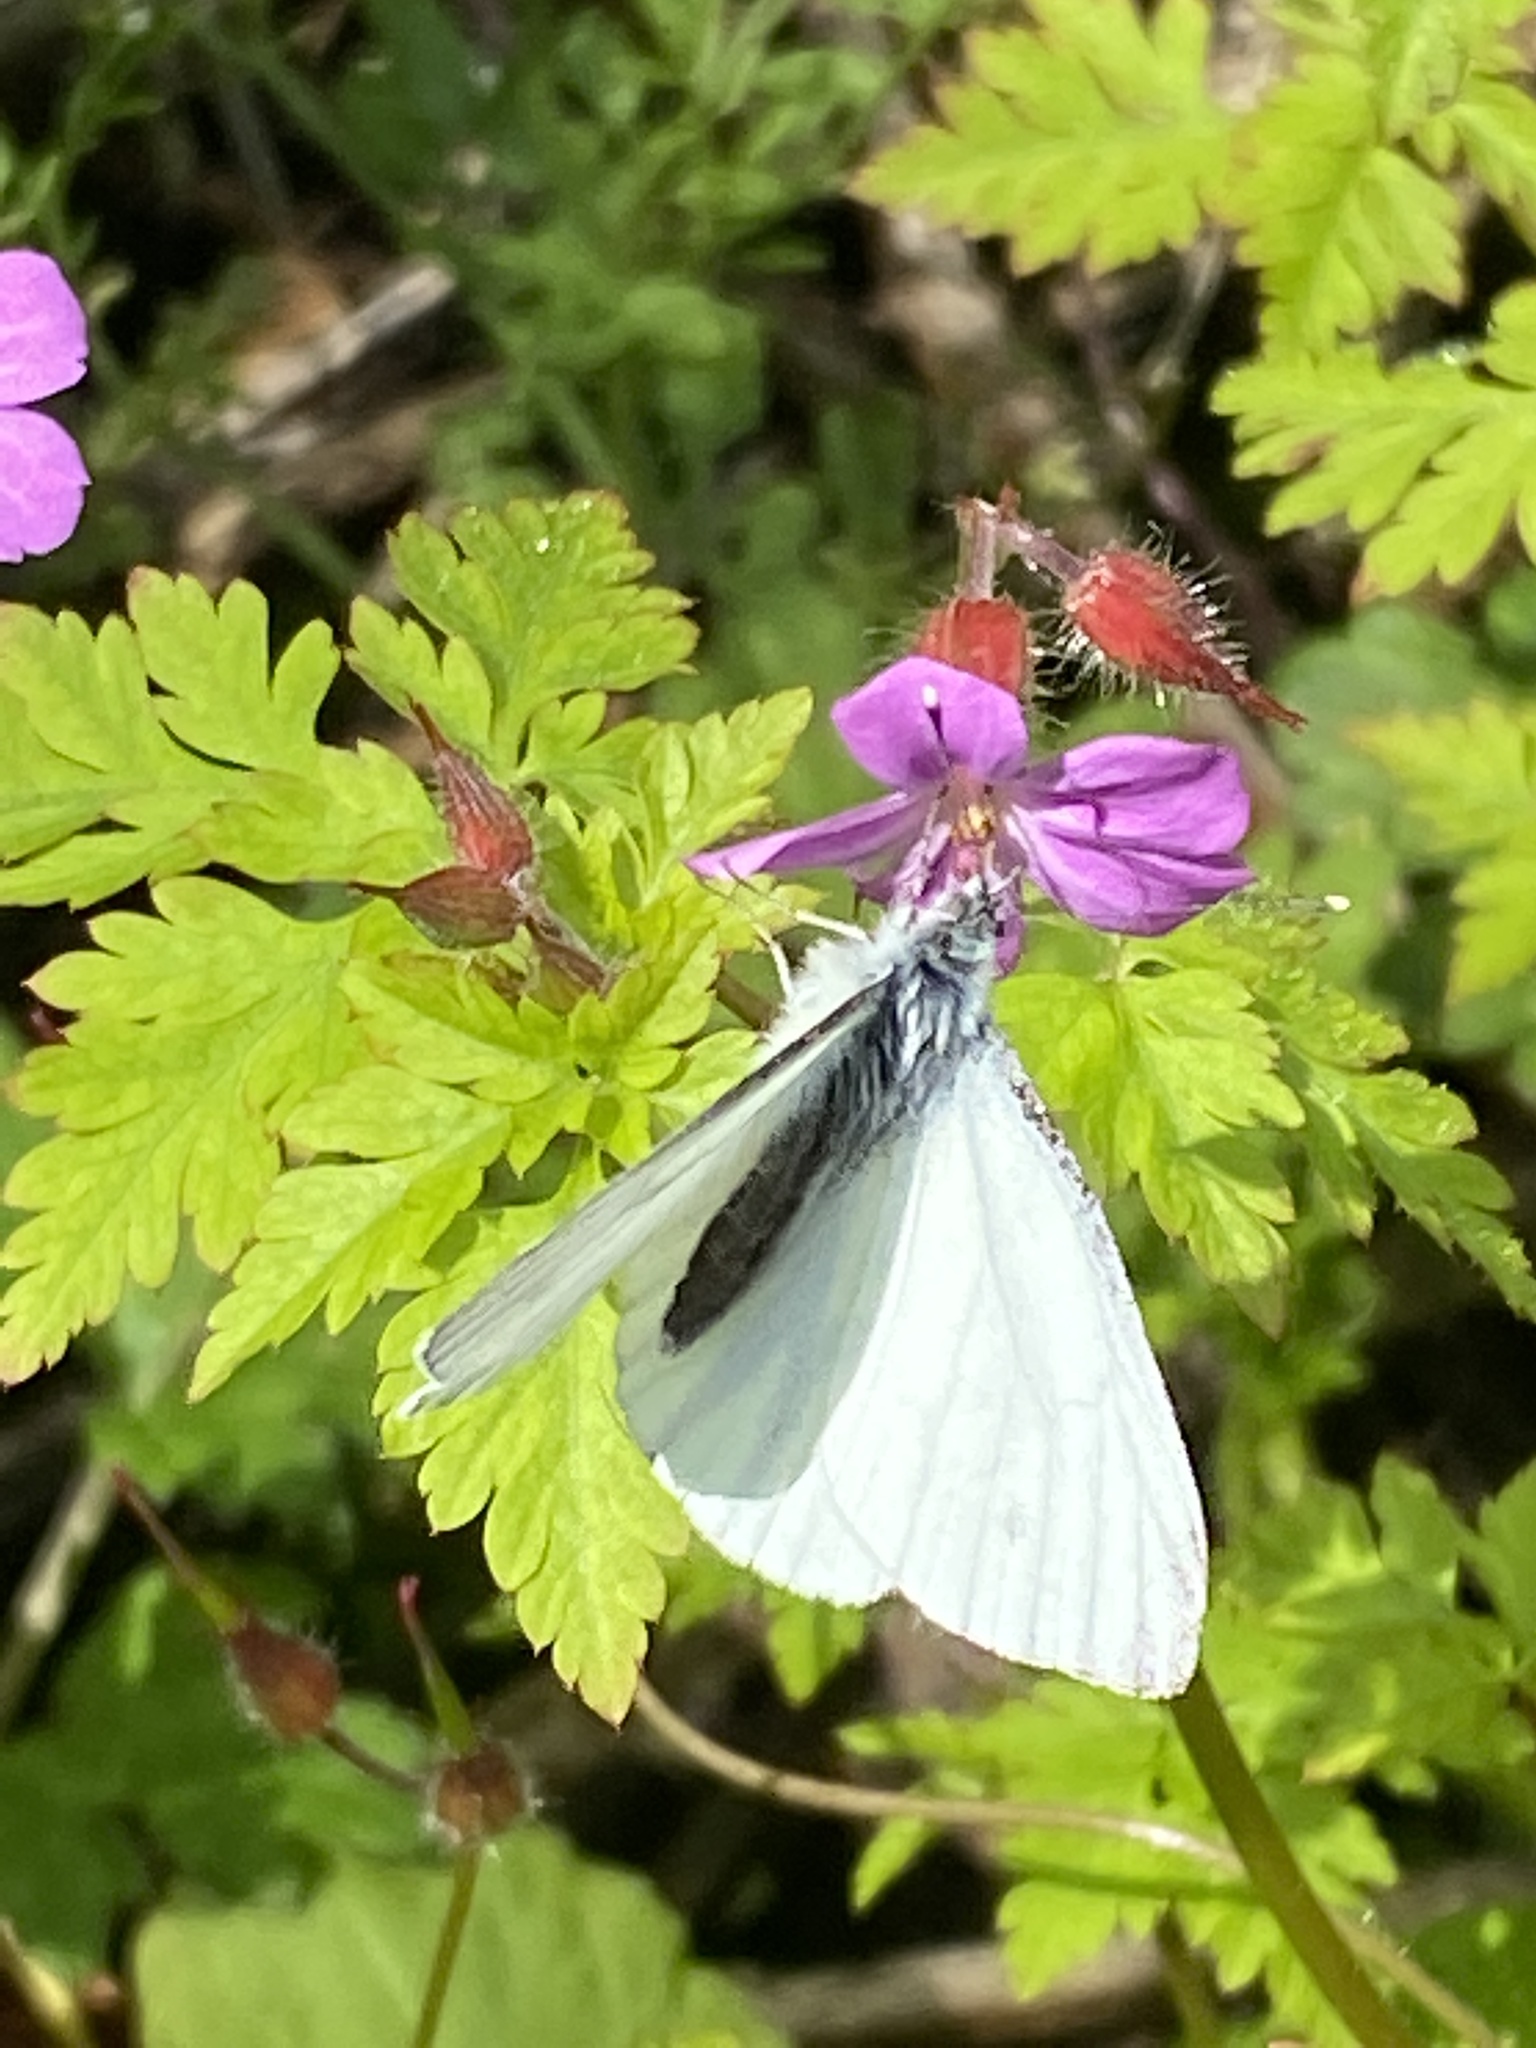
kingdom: Animalia
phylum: Arthropoda
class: Insecta
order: Lepidoptera
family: Pieridae
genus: Pieris
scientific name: Pieris napi
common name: Green-veined white
